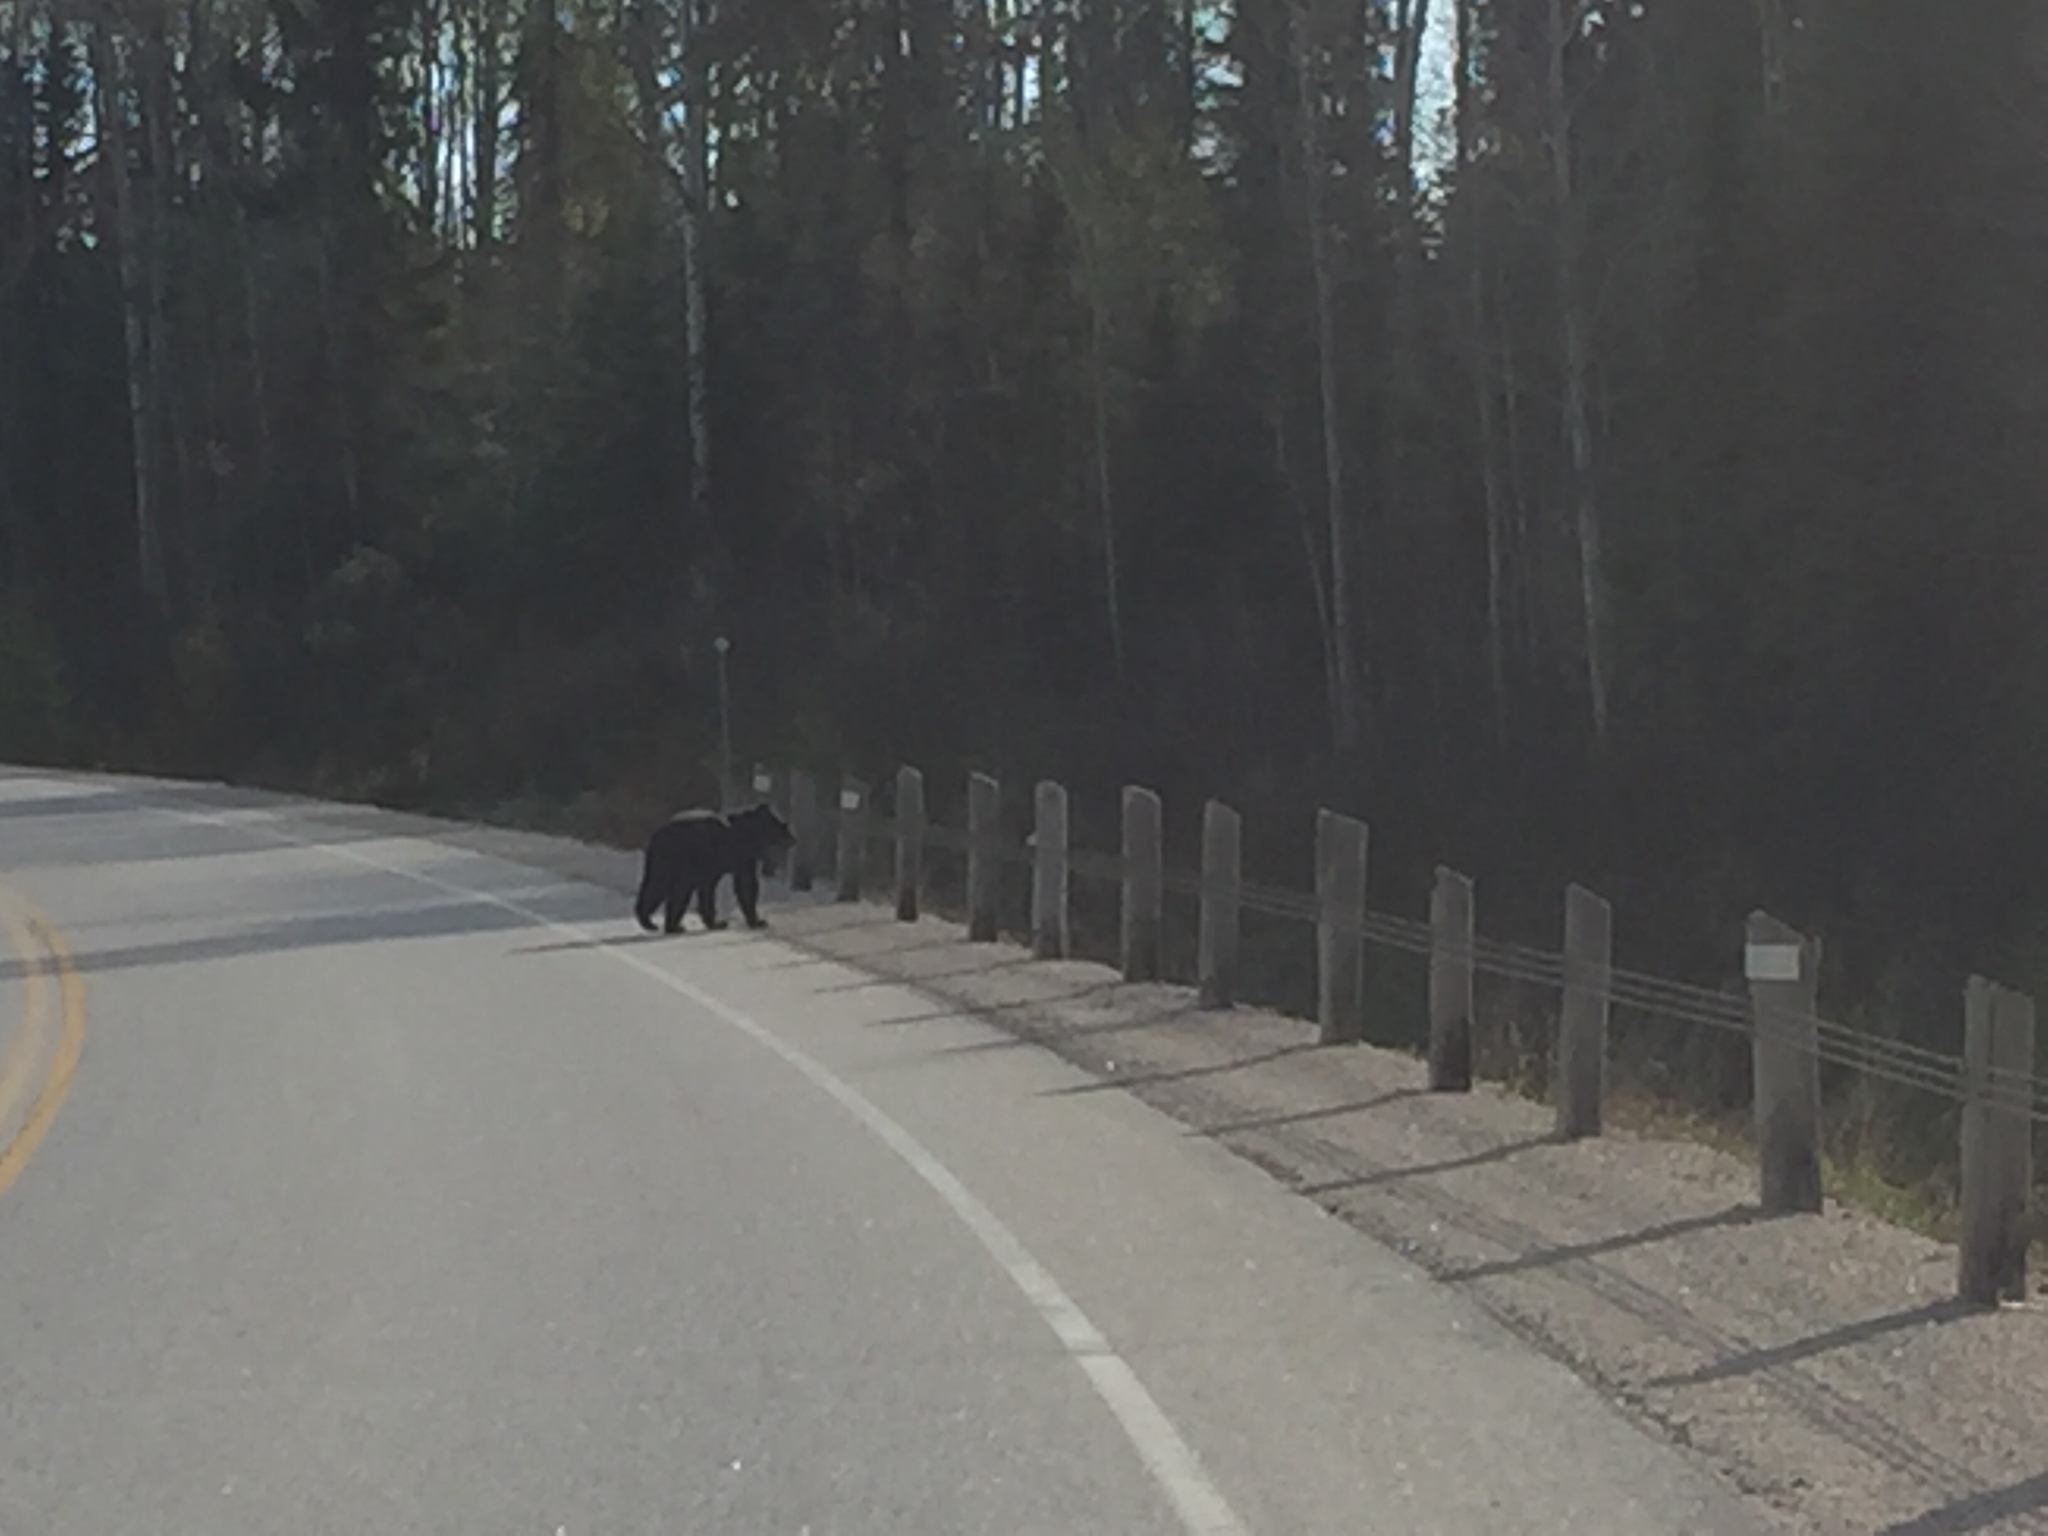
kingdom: Animalia
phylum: Chordata
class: Mammalia
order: Carnivora
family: Ursidae
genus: Ursus
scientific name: Ursus americanus
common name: American black bear
